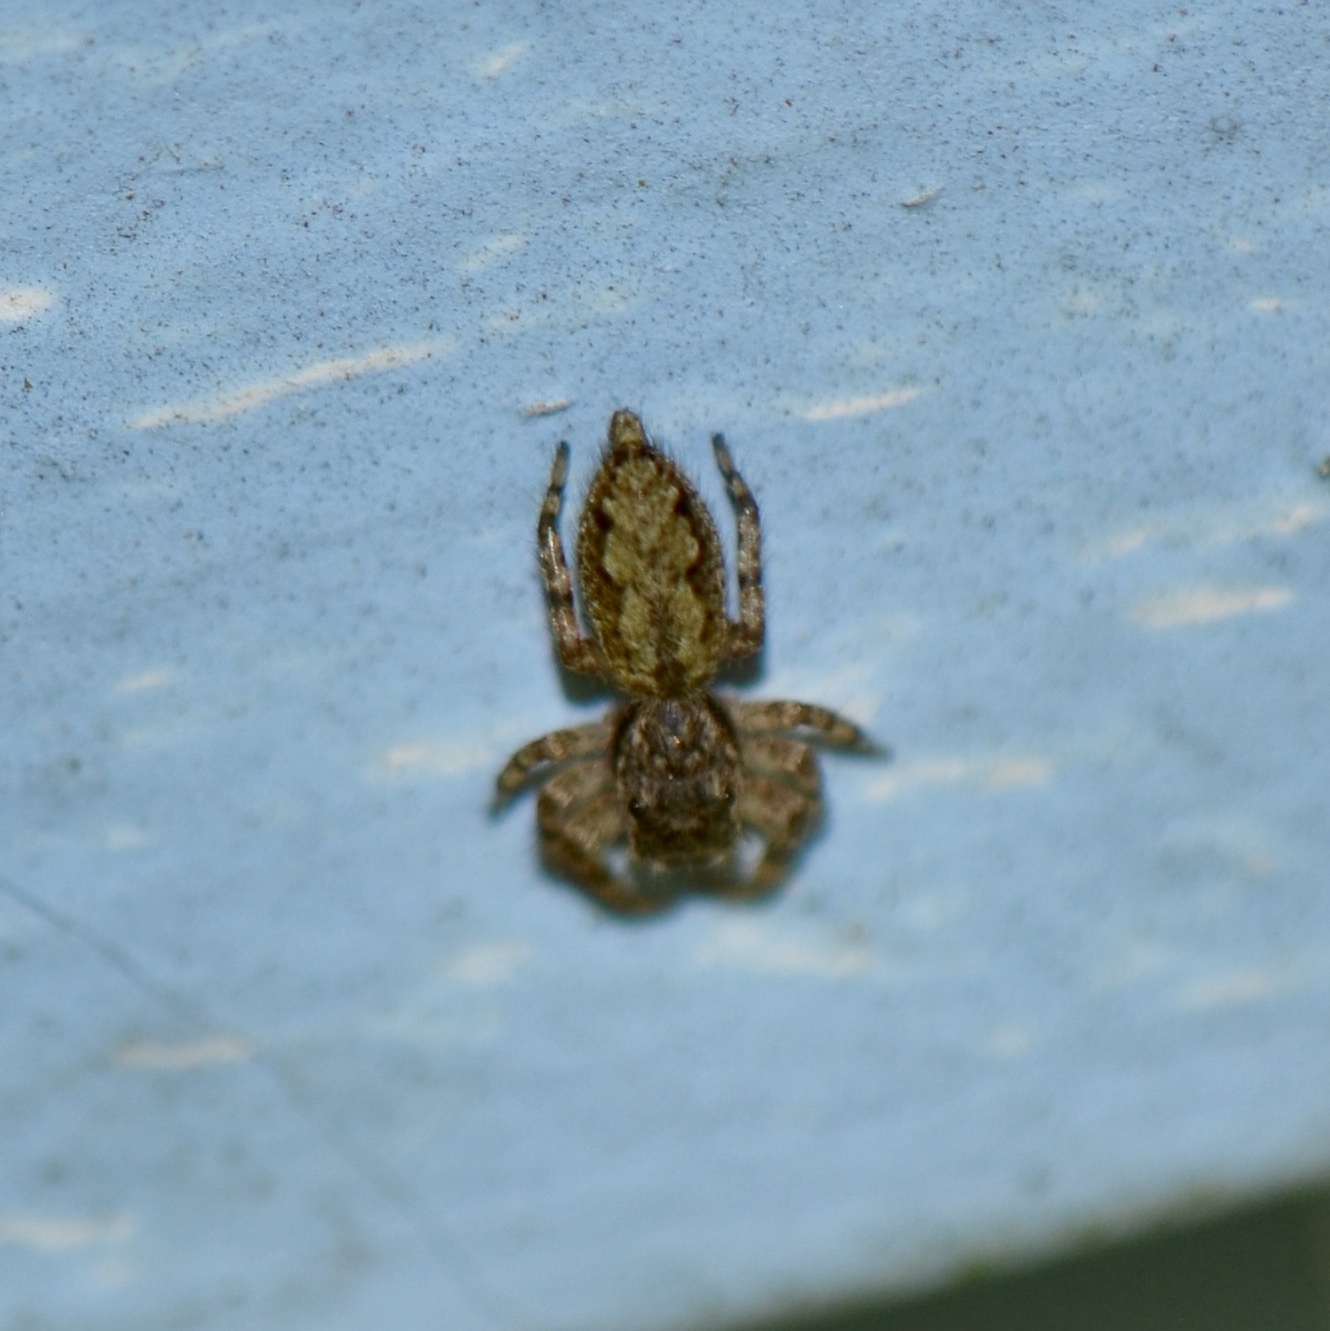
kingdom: Animalia
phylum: Arthropoda
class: Arachnida
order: Araneae
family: Salticidae
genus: Platycryptus
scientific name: Platycryptus undatus
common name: Tan jumping spider
